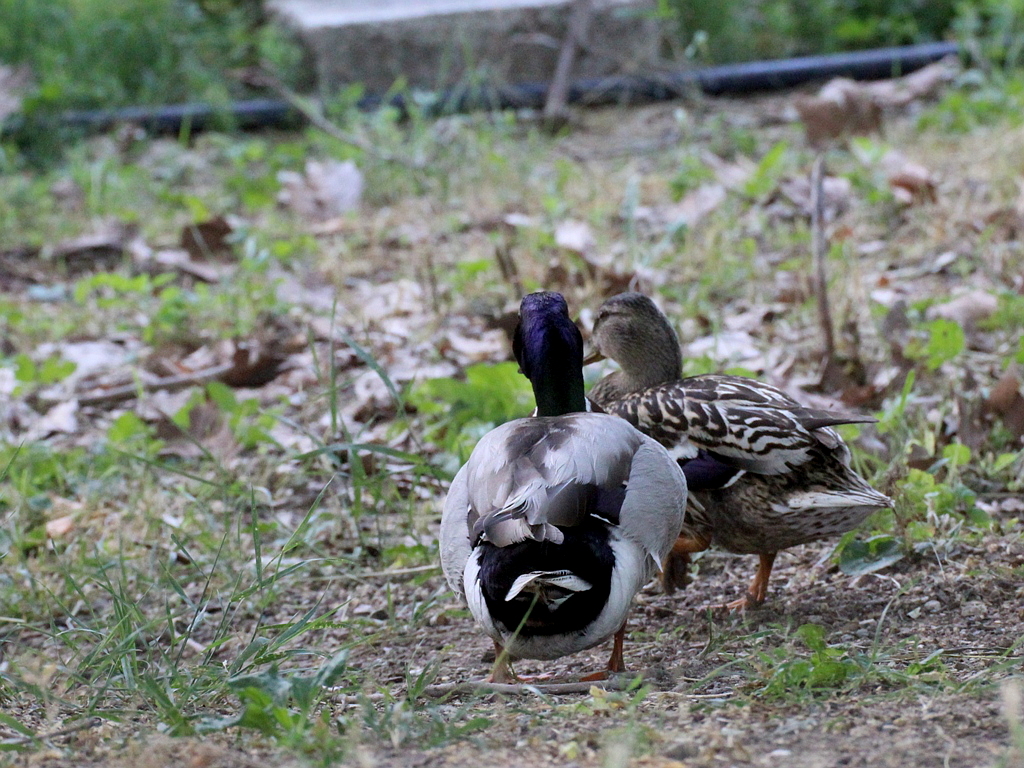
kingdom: Animalia
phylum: Chordata
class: Aves
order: Anseriformes
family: Anatidae
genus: Anas
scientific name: Anas platyrhynchos
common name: Mallard
